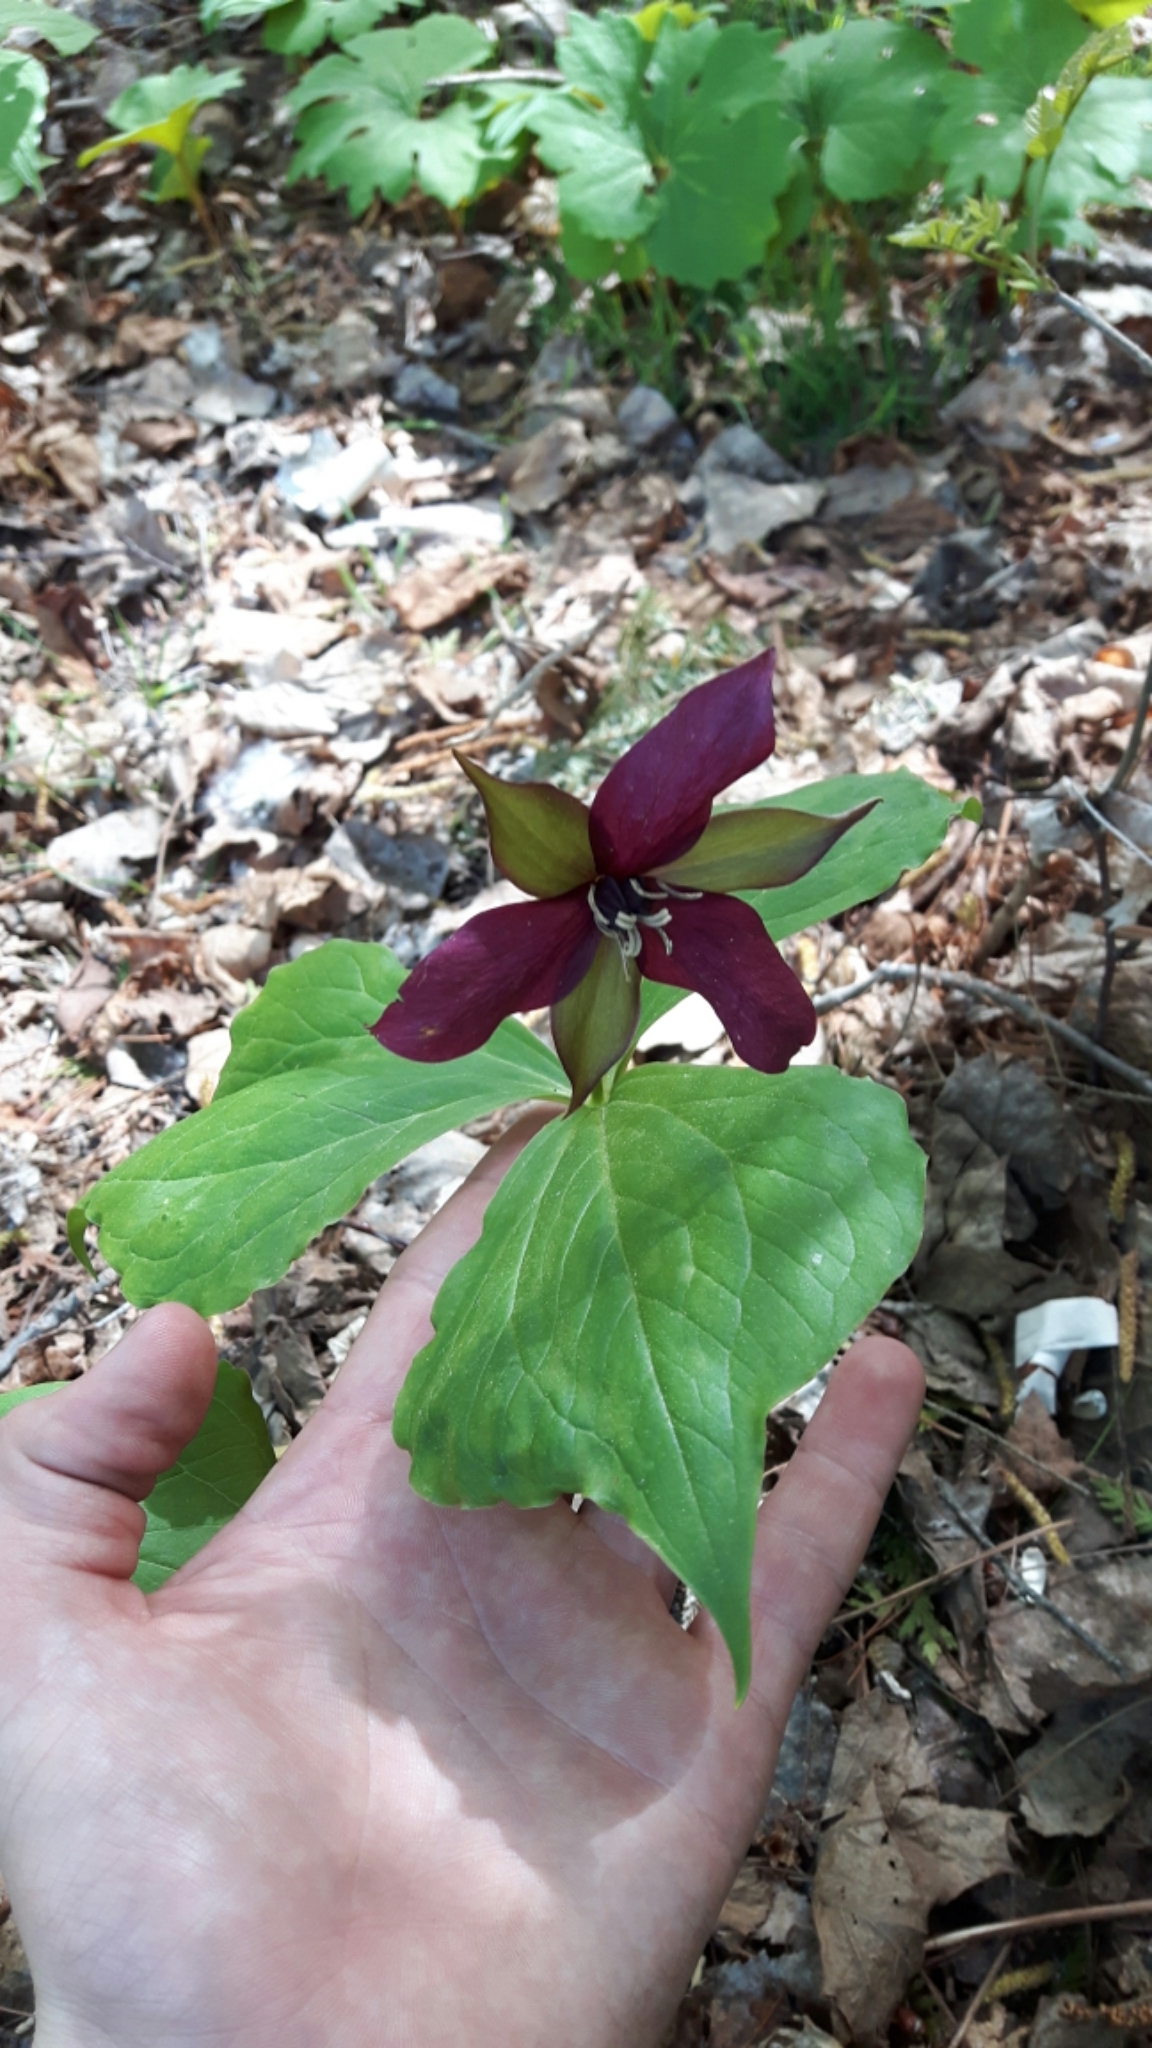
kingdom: Plantae
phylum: Tracheophyta
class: Liliopsida
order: Liliales
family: Melanthiaceae
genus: Trillium
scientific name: Trillium erectum
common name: Purple trillium
